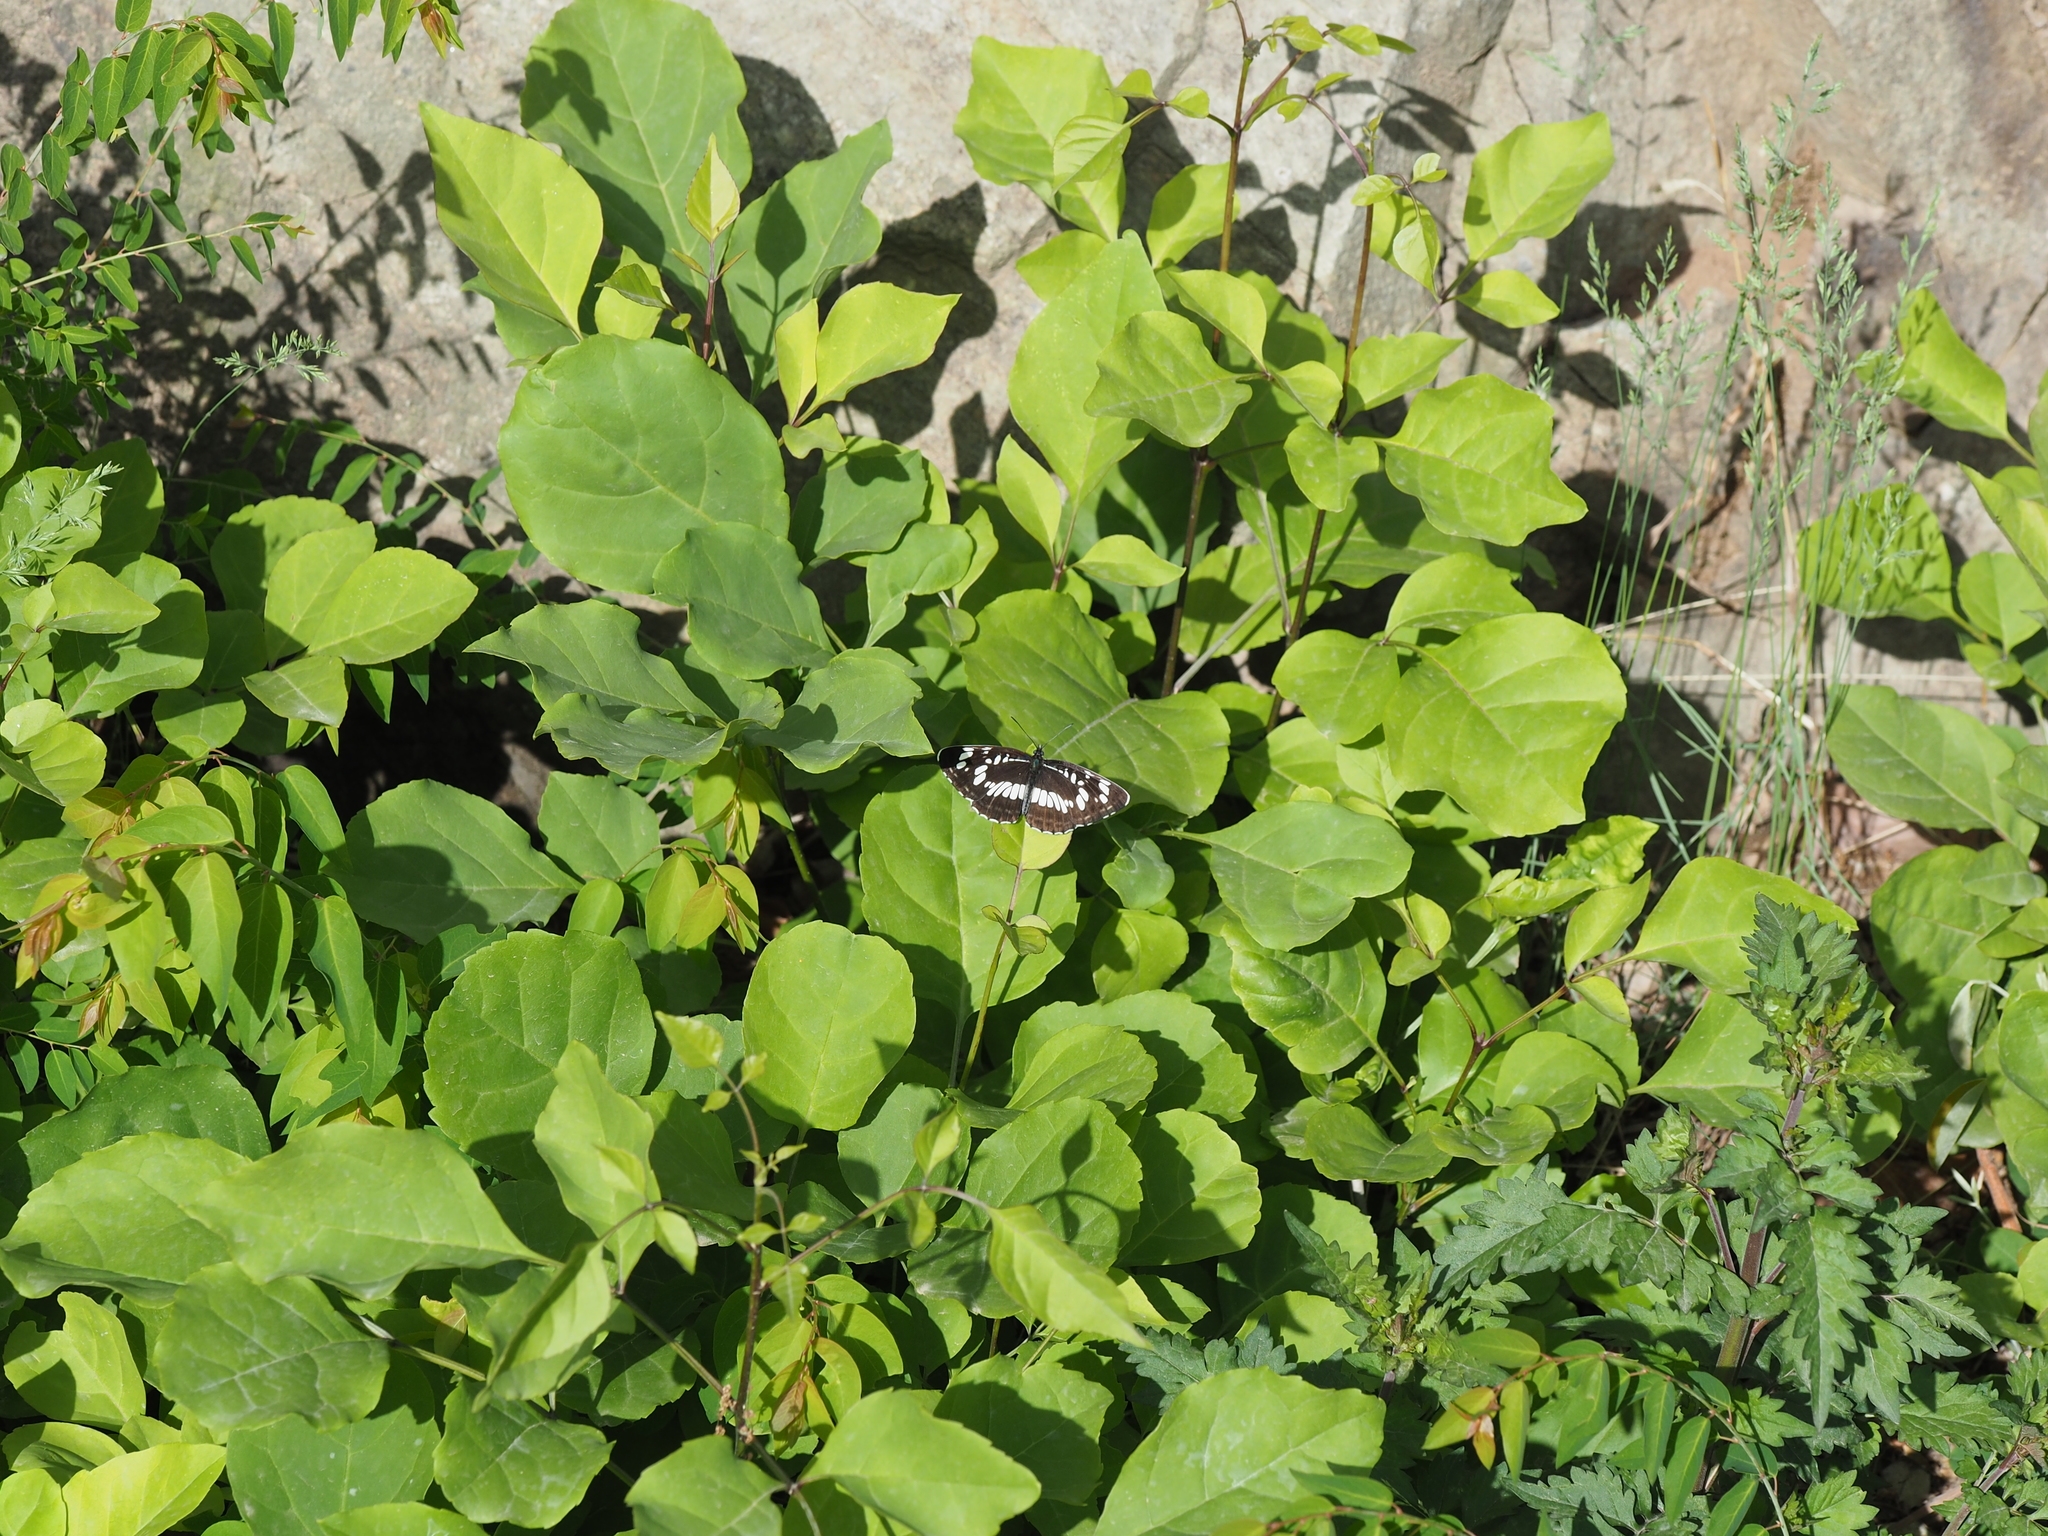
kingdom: Animalia
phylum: Arthropoda
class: Insecta
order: Lepidoptera
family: Nymphalidae
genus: Neptis
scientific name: Neptis rivularis
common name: Hungarian glider
